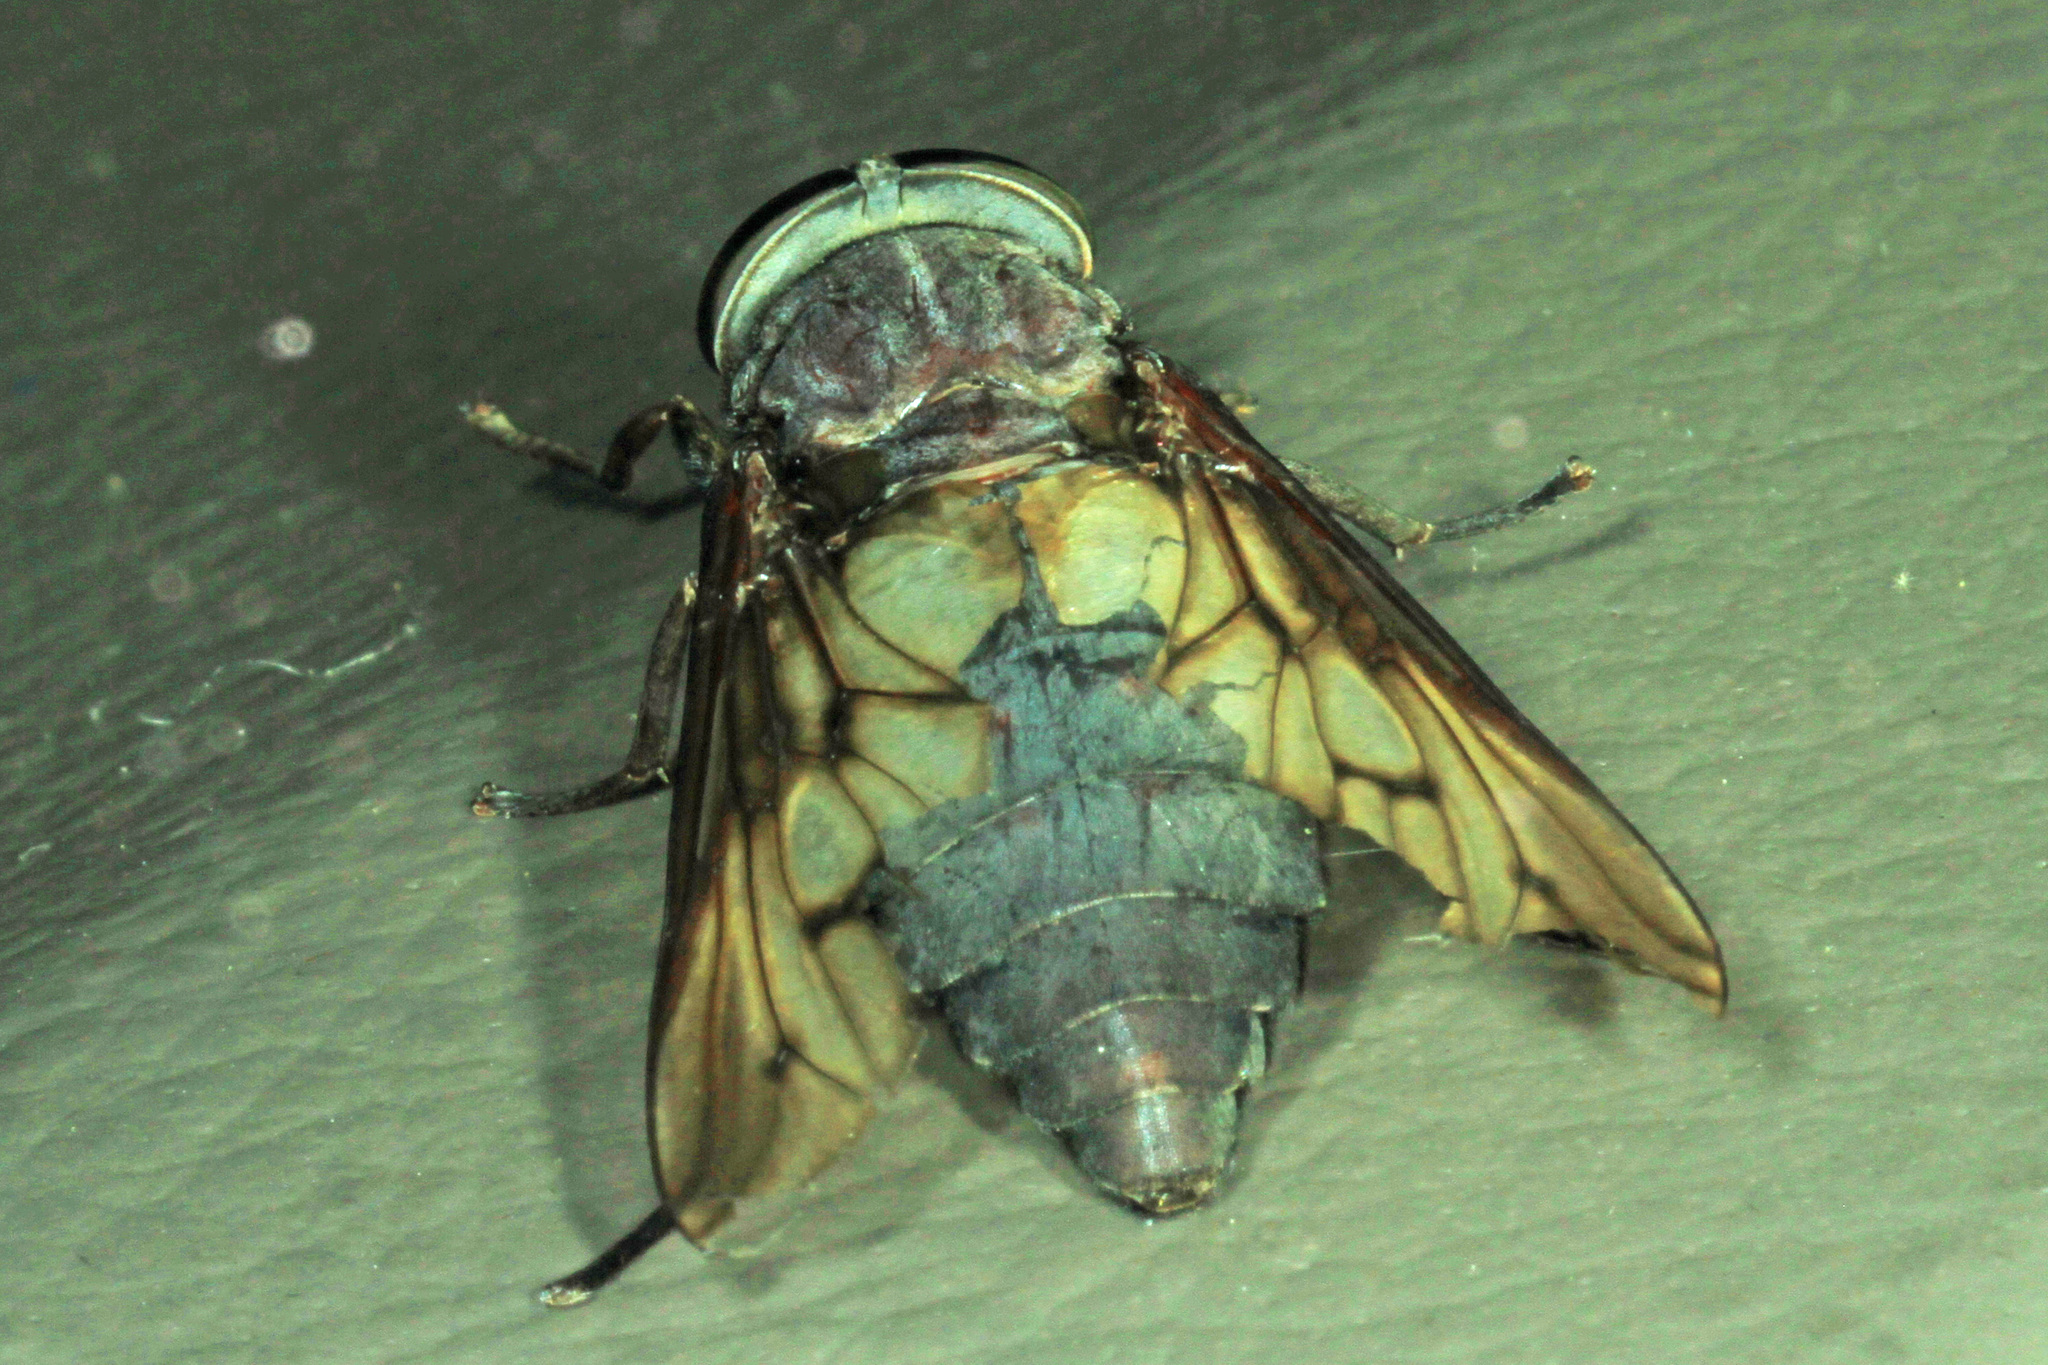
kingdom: Animalia
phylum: Arthropoda
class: Insecta
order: Diptera
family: Tabanidae
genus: Tabanus
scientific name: Tabanus proximus
